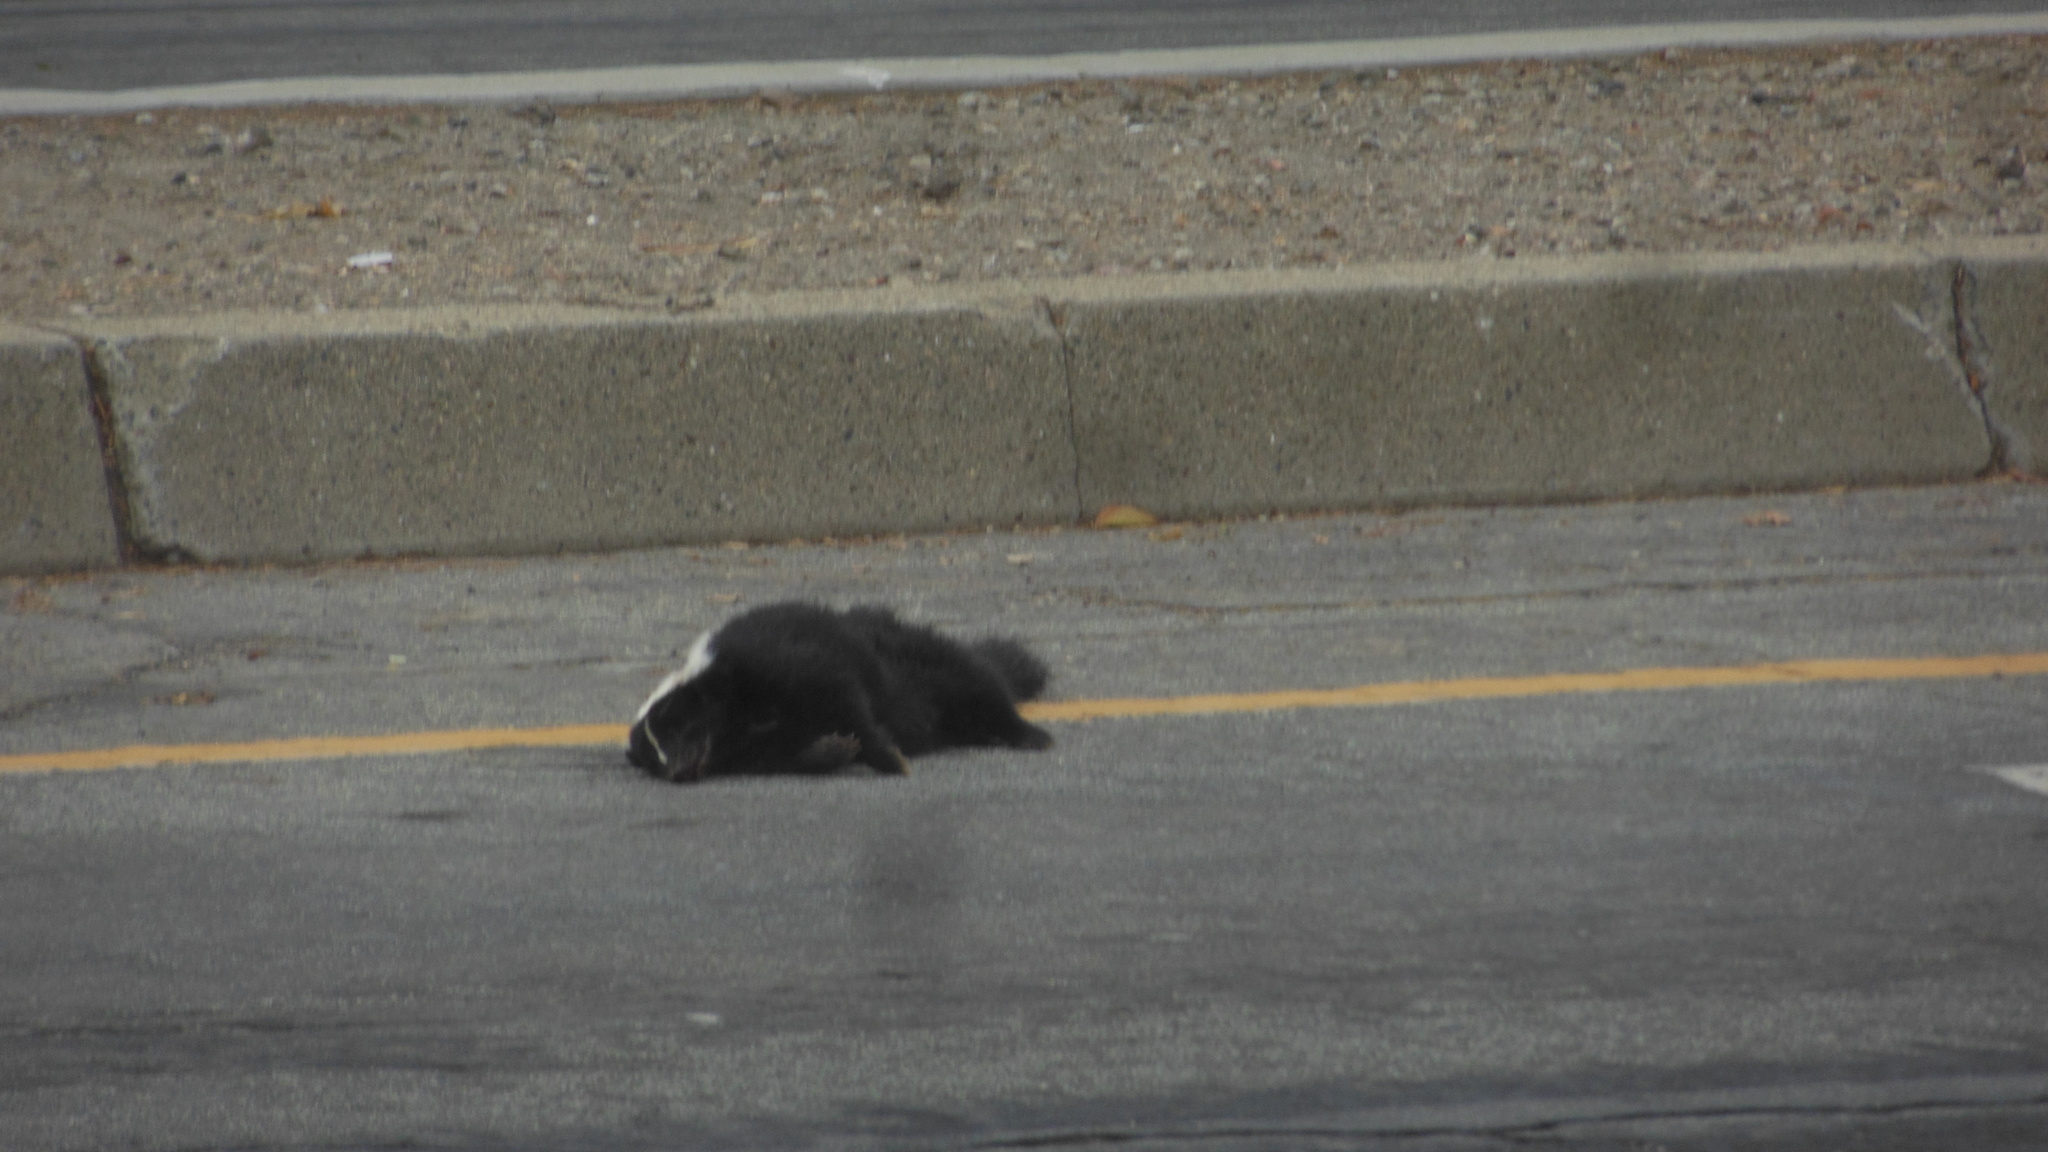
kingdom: Animalia
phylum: Chordata
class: Mammalia
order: Carnivora
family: Mephitidae
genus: Mephitis
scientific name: Mephitis mephitis
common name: Striped skunk
